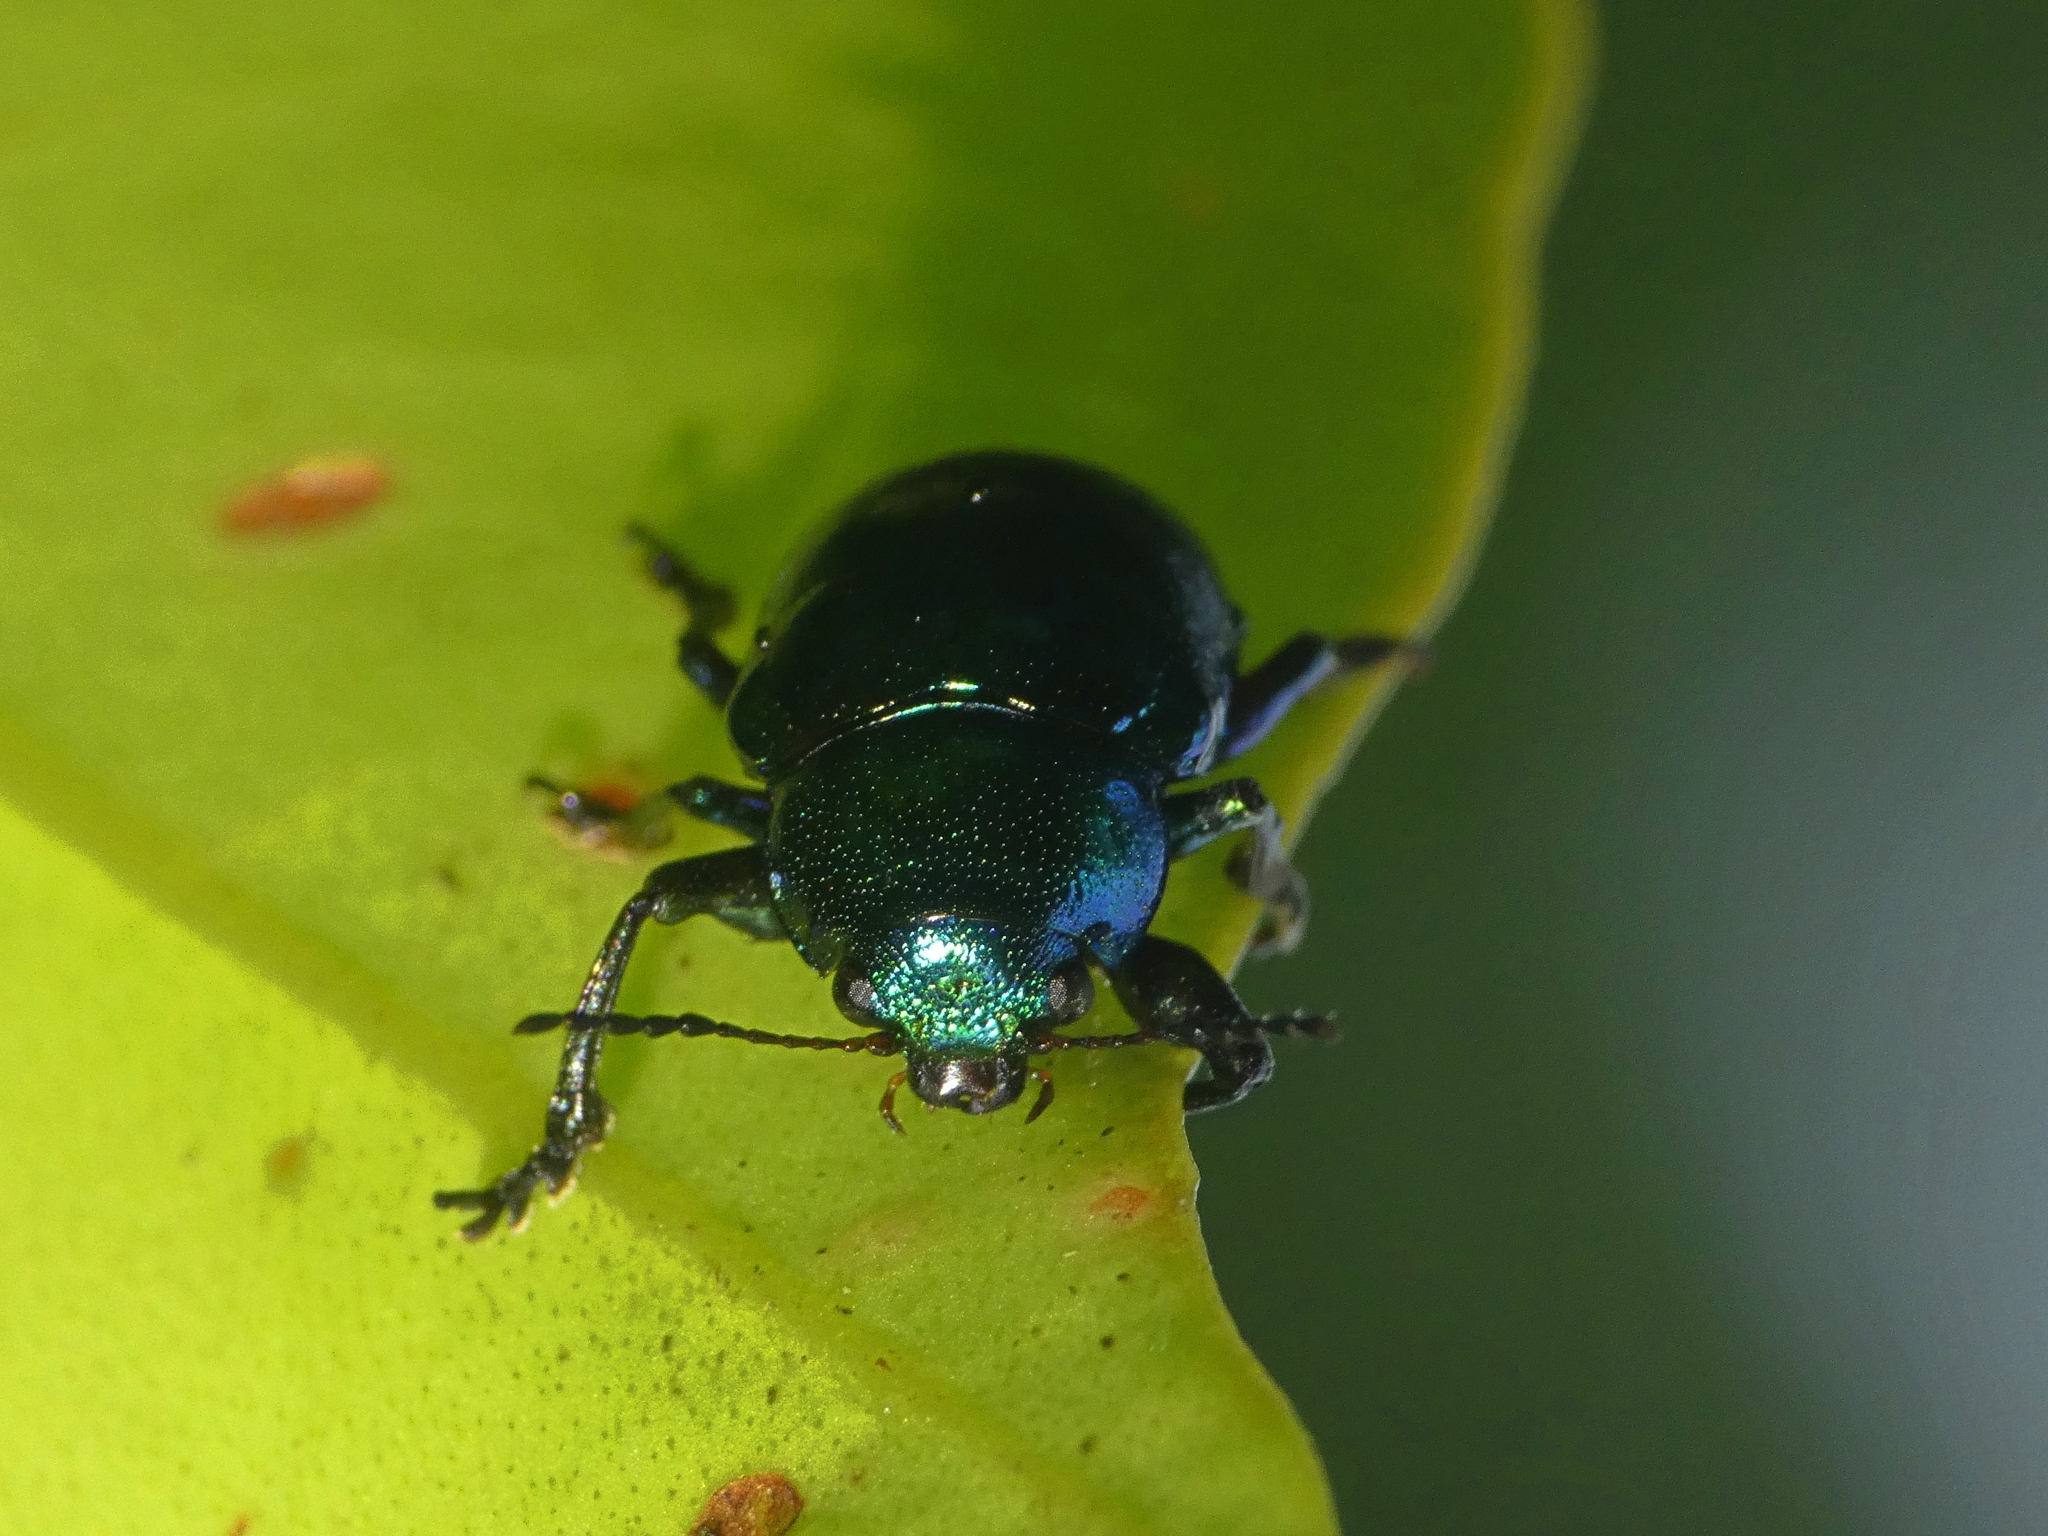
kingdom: Animalia
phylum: Arthropoda
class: Insecta
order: Coleoptera
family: Chrysomelidae
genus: Colasposoma
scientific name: Colasposoma sellatum
